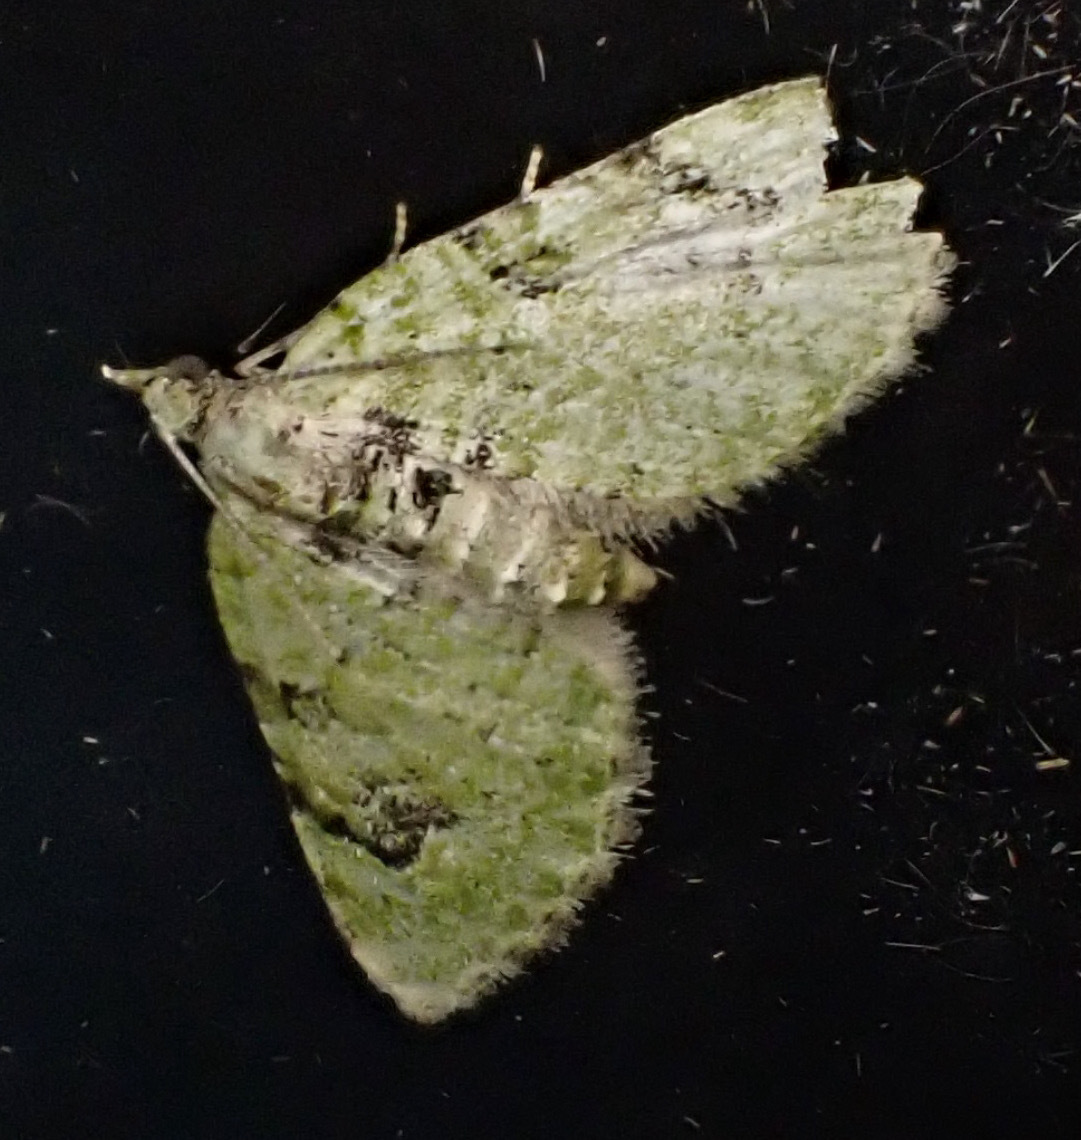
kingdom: Animalia
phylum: Arthropoda
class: Insecta
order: Lepidoptera
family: Geometridae
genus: Chloroclystis
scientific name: Chloroclystis v-ata
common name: V-pug
